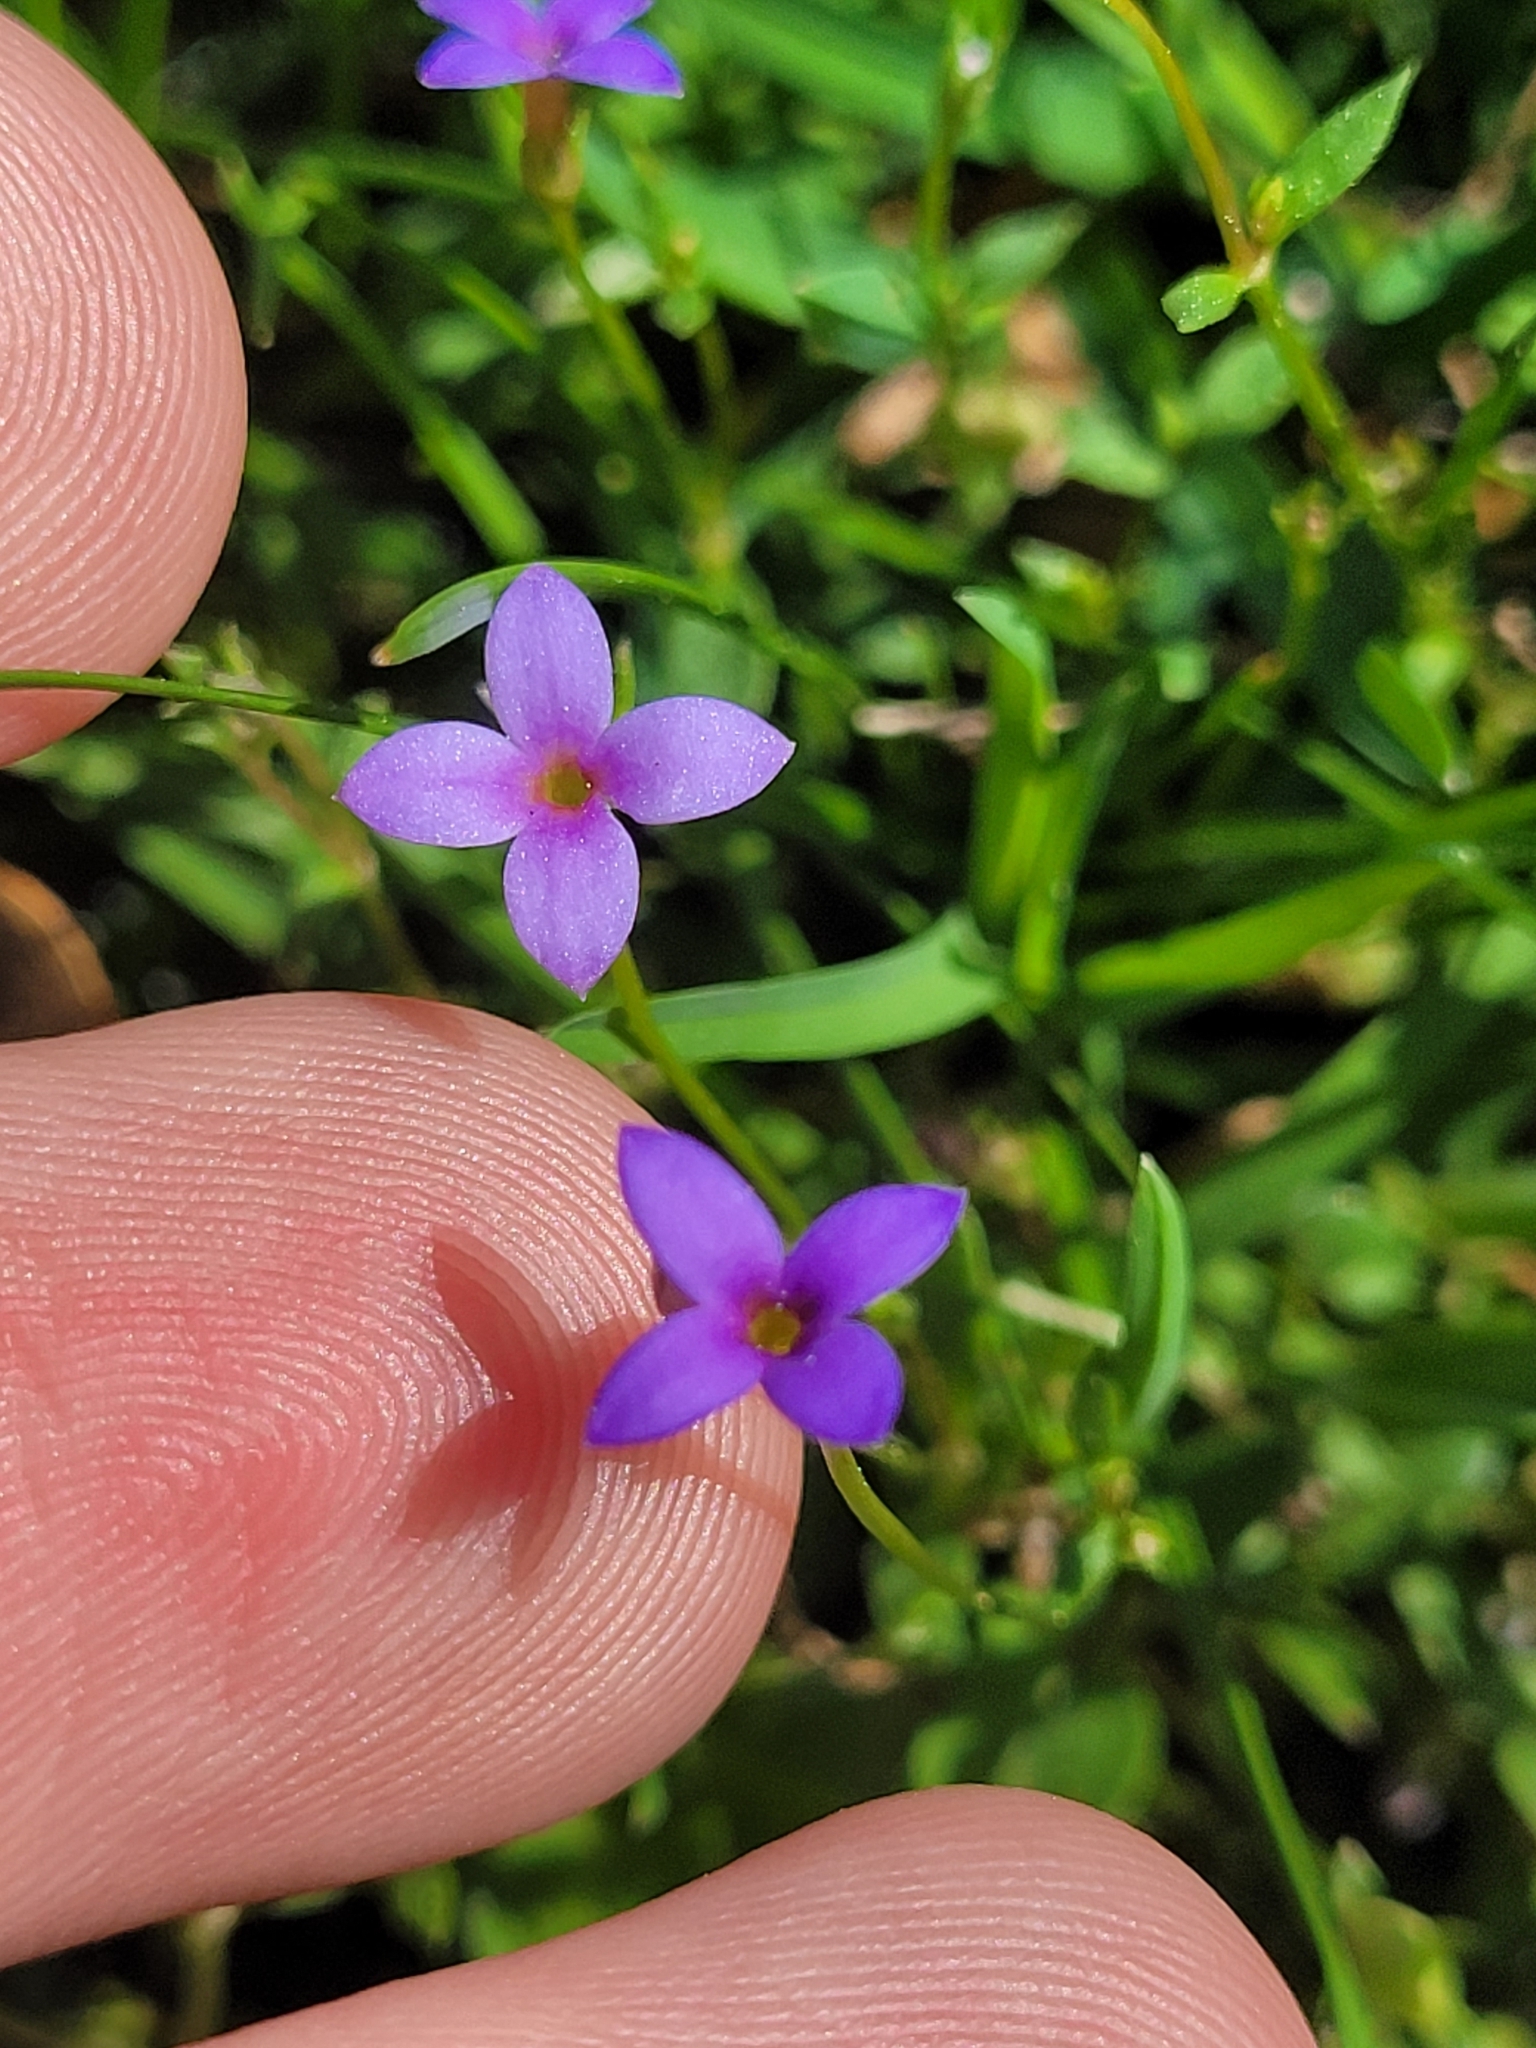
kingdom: Plantae
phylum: Tracheophyta
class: Magnoliopsida
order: Gentianales
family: Rubiaceae
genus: Houstonia
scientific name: Houstonia pusilla
